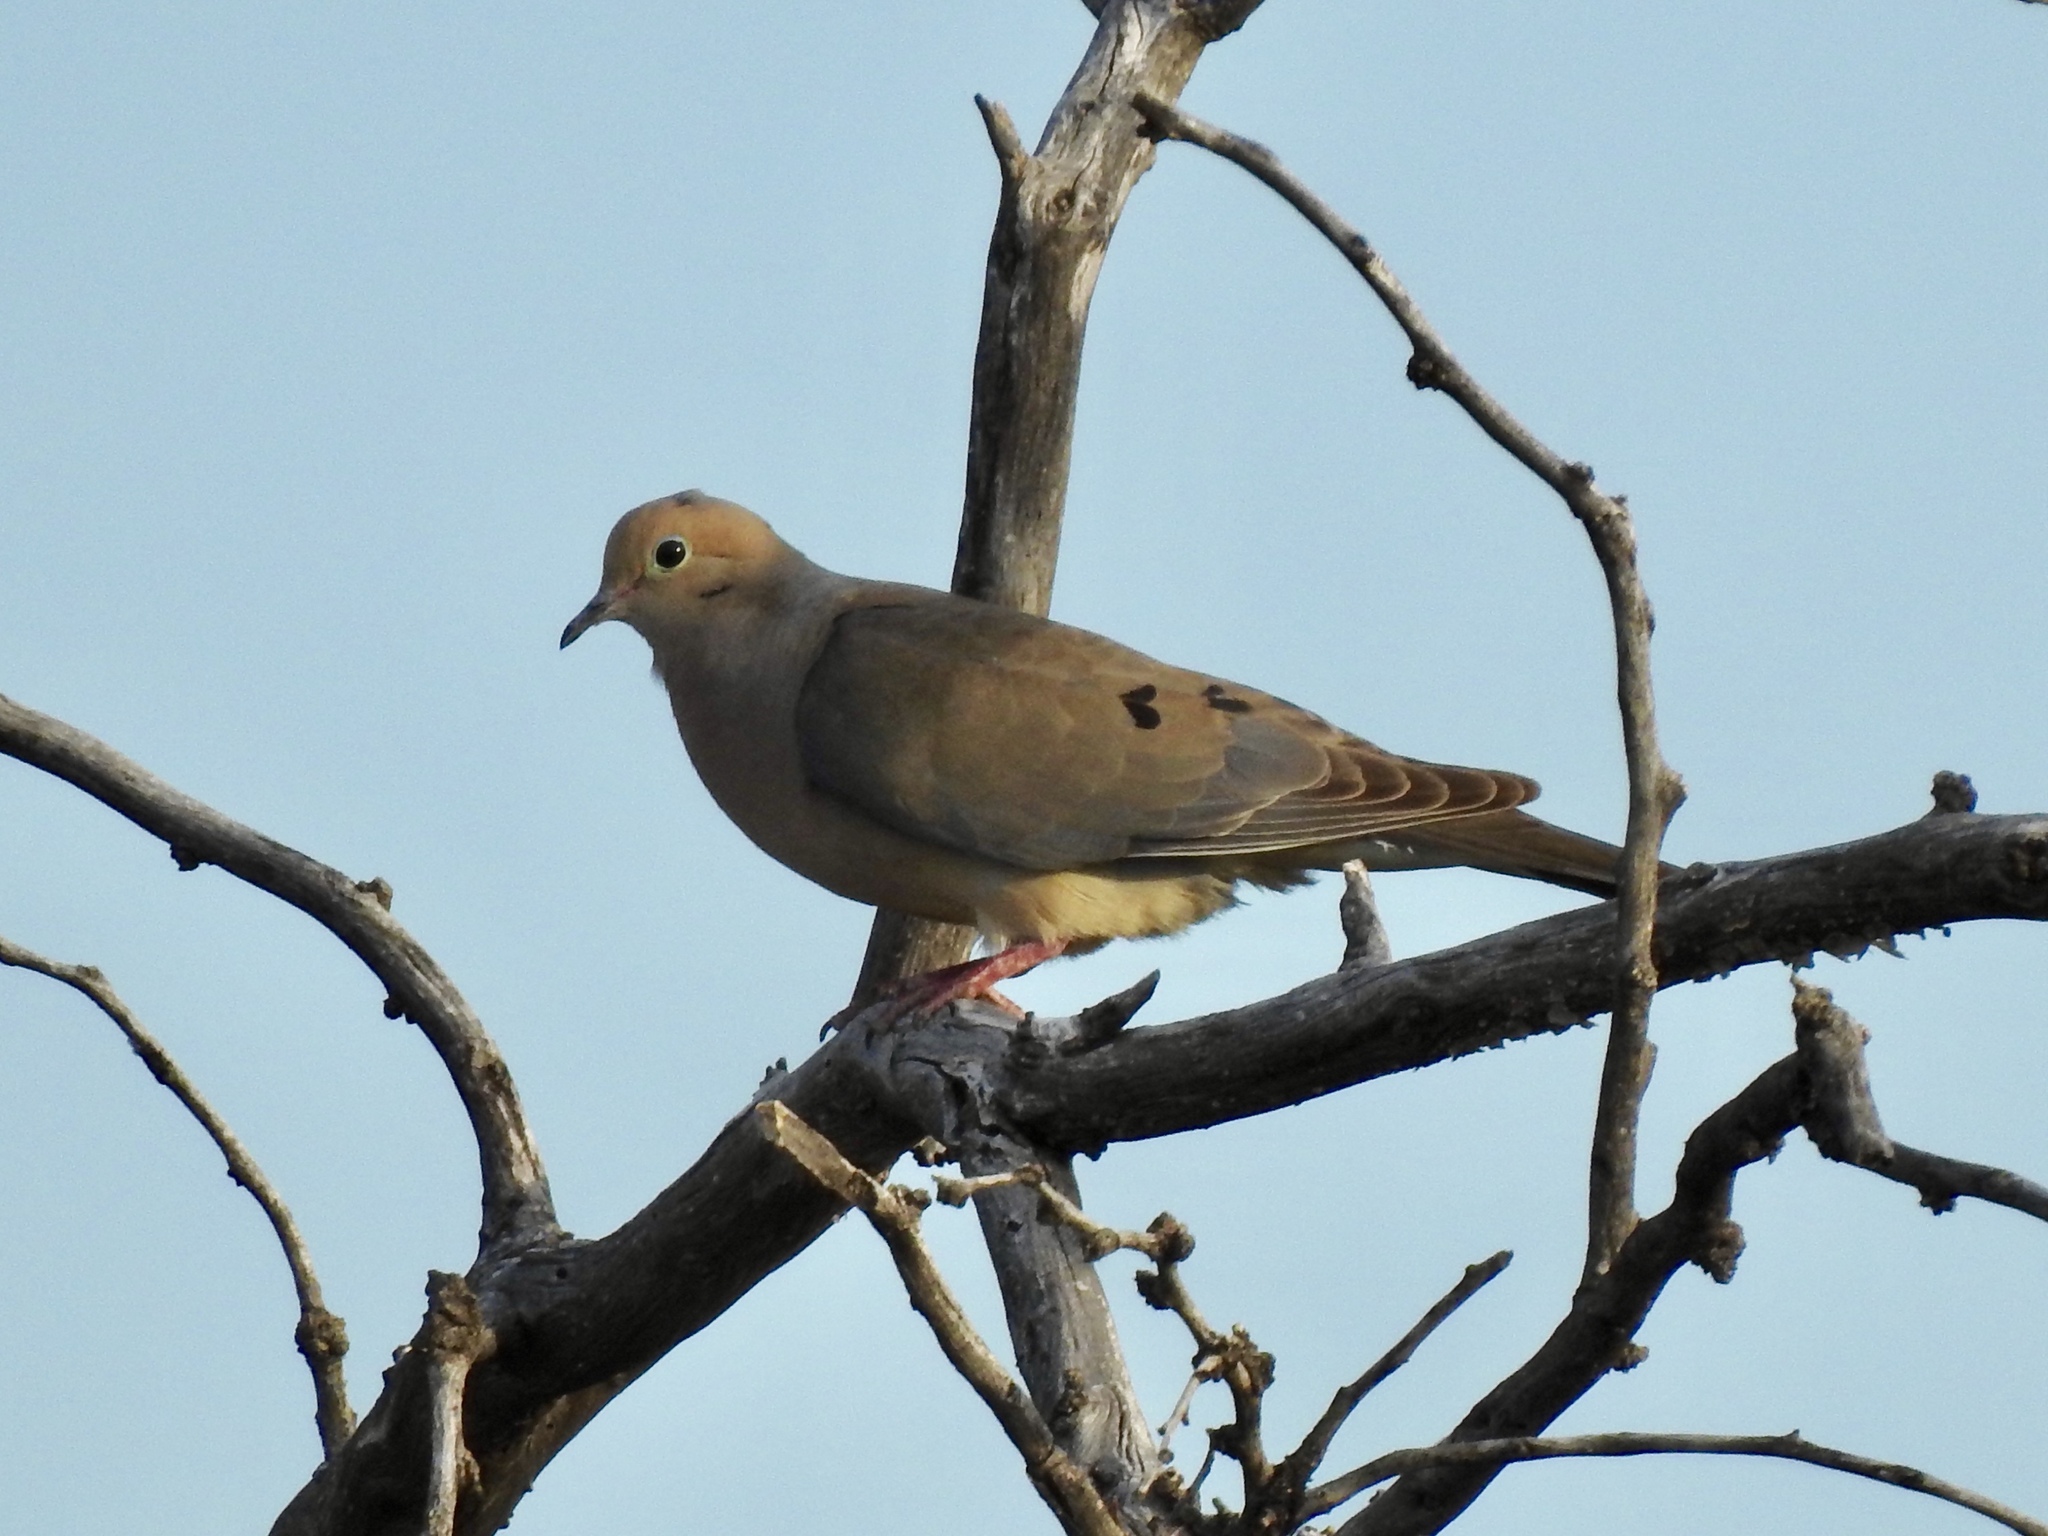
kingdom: Animalia
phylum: Chordata
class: Aves
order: Columbiformes
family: Columbidae
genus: Zenaida
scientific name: Zenaida macroura
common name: Mourning dove
